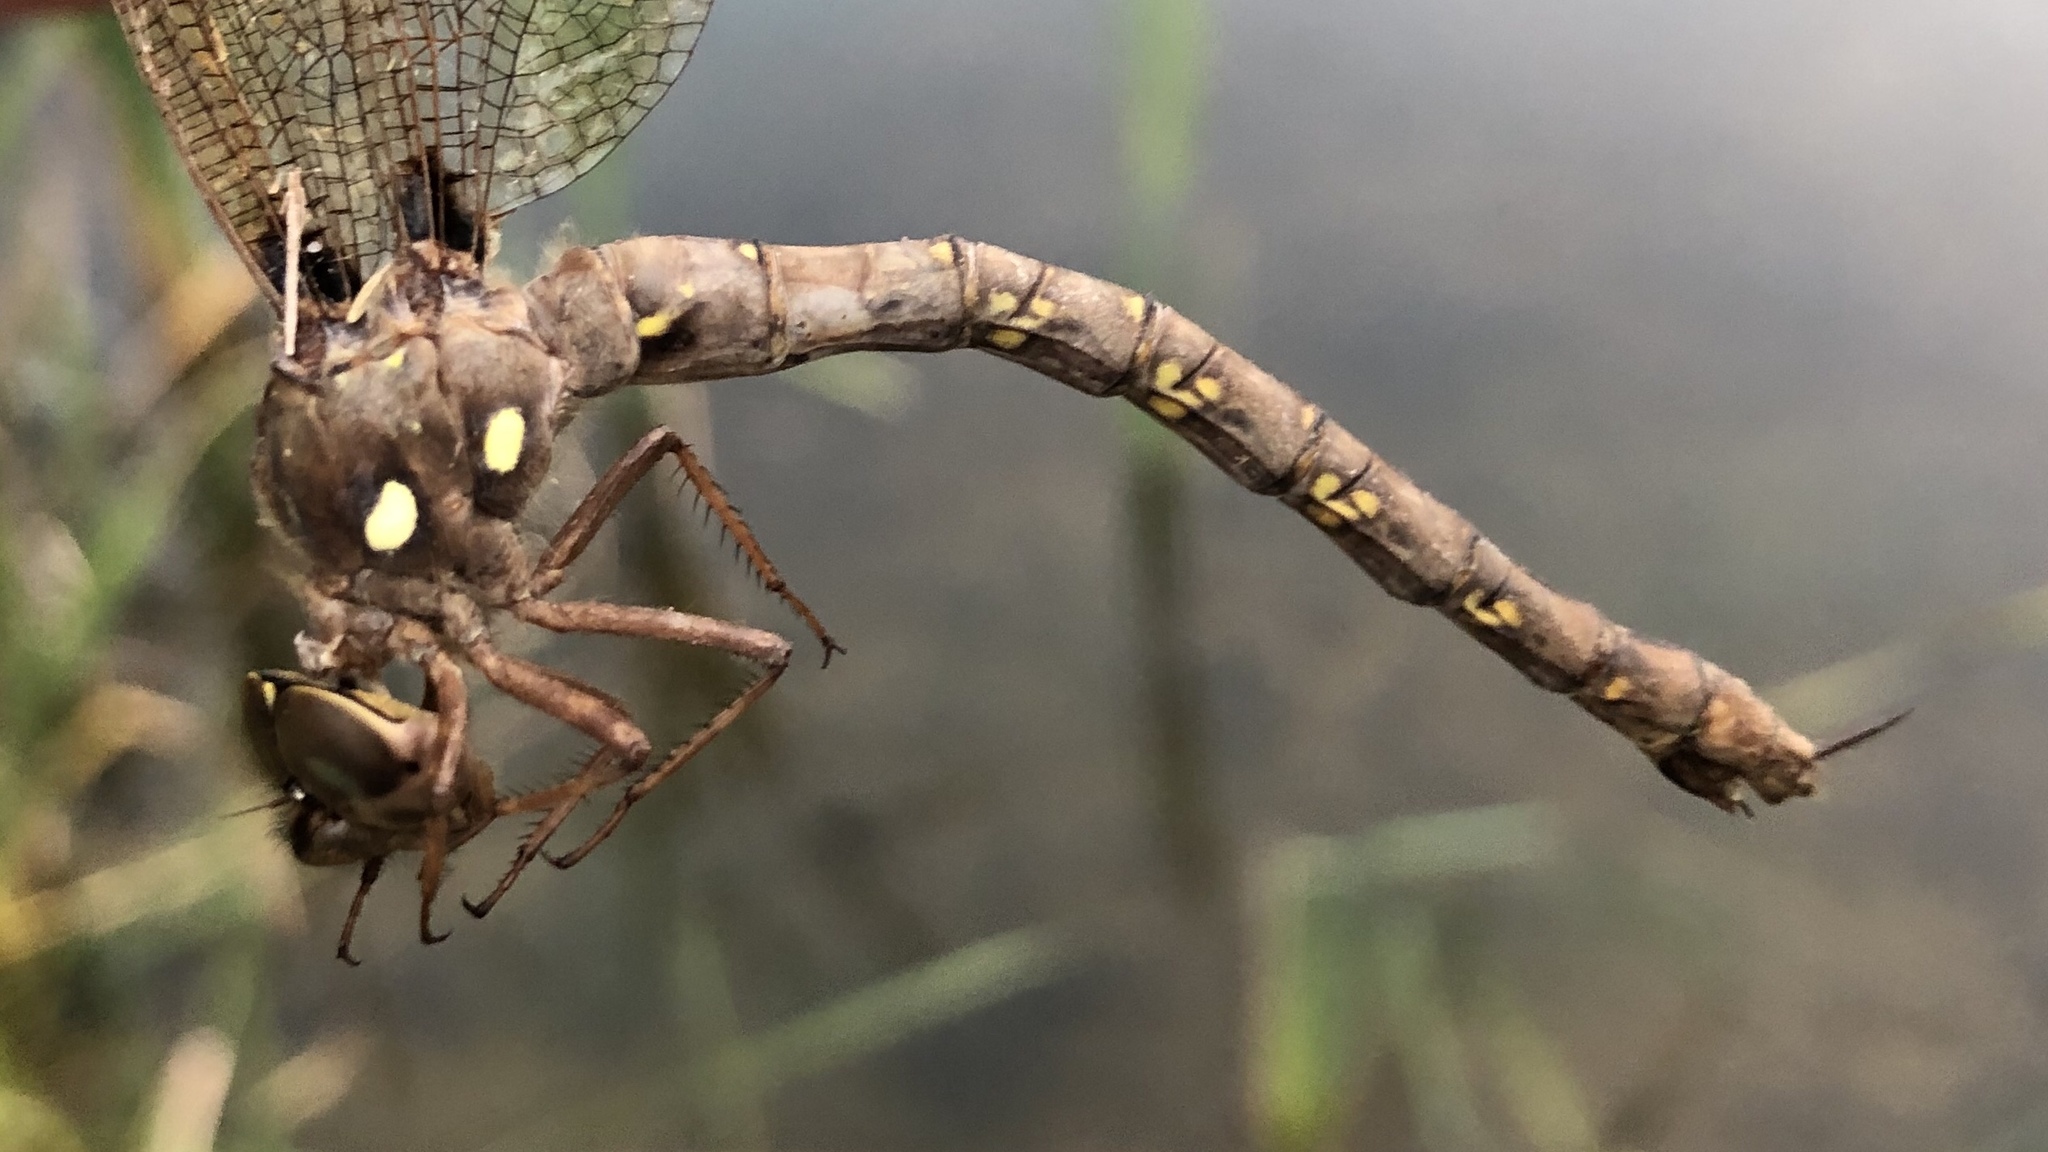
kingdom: Animalia
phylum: Arthropoda
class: Insecta
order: Odonata
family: Aeshnidae
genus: Boyeria
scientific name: Boyeria vinosa
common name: Fawn darner
